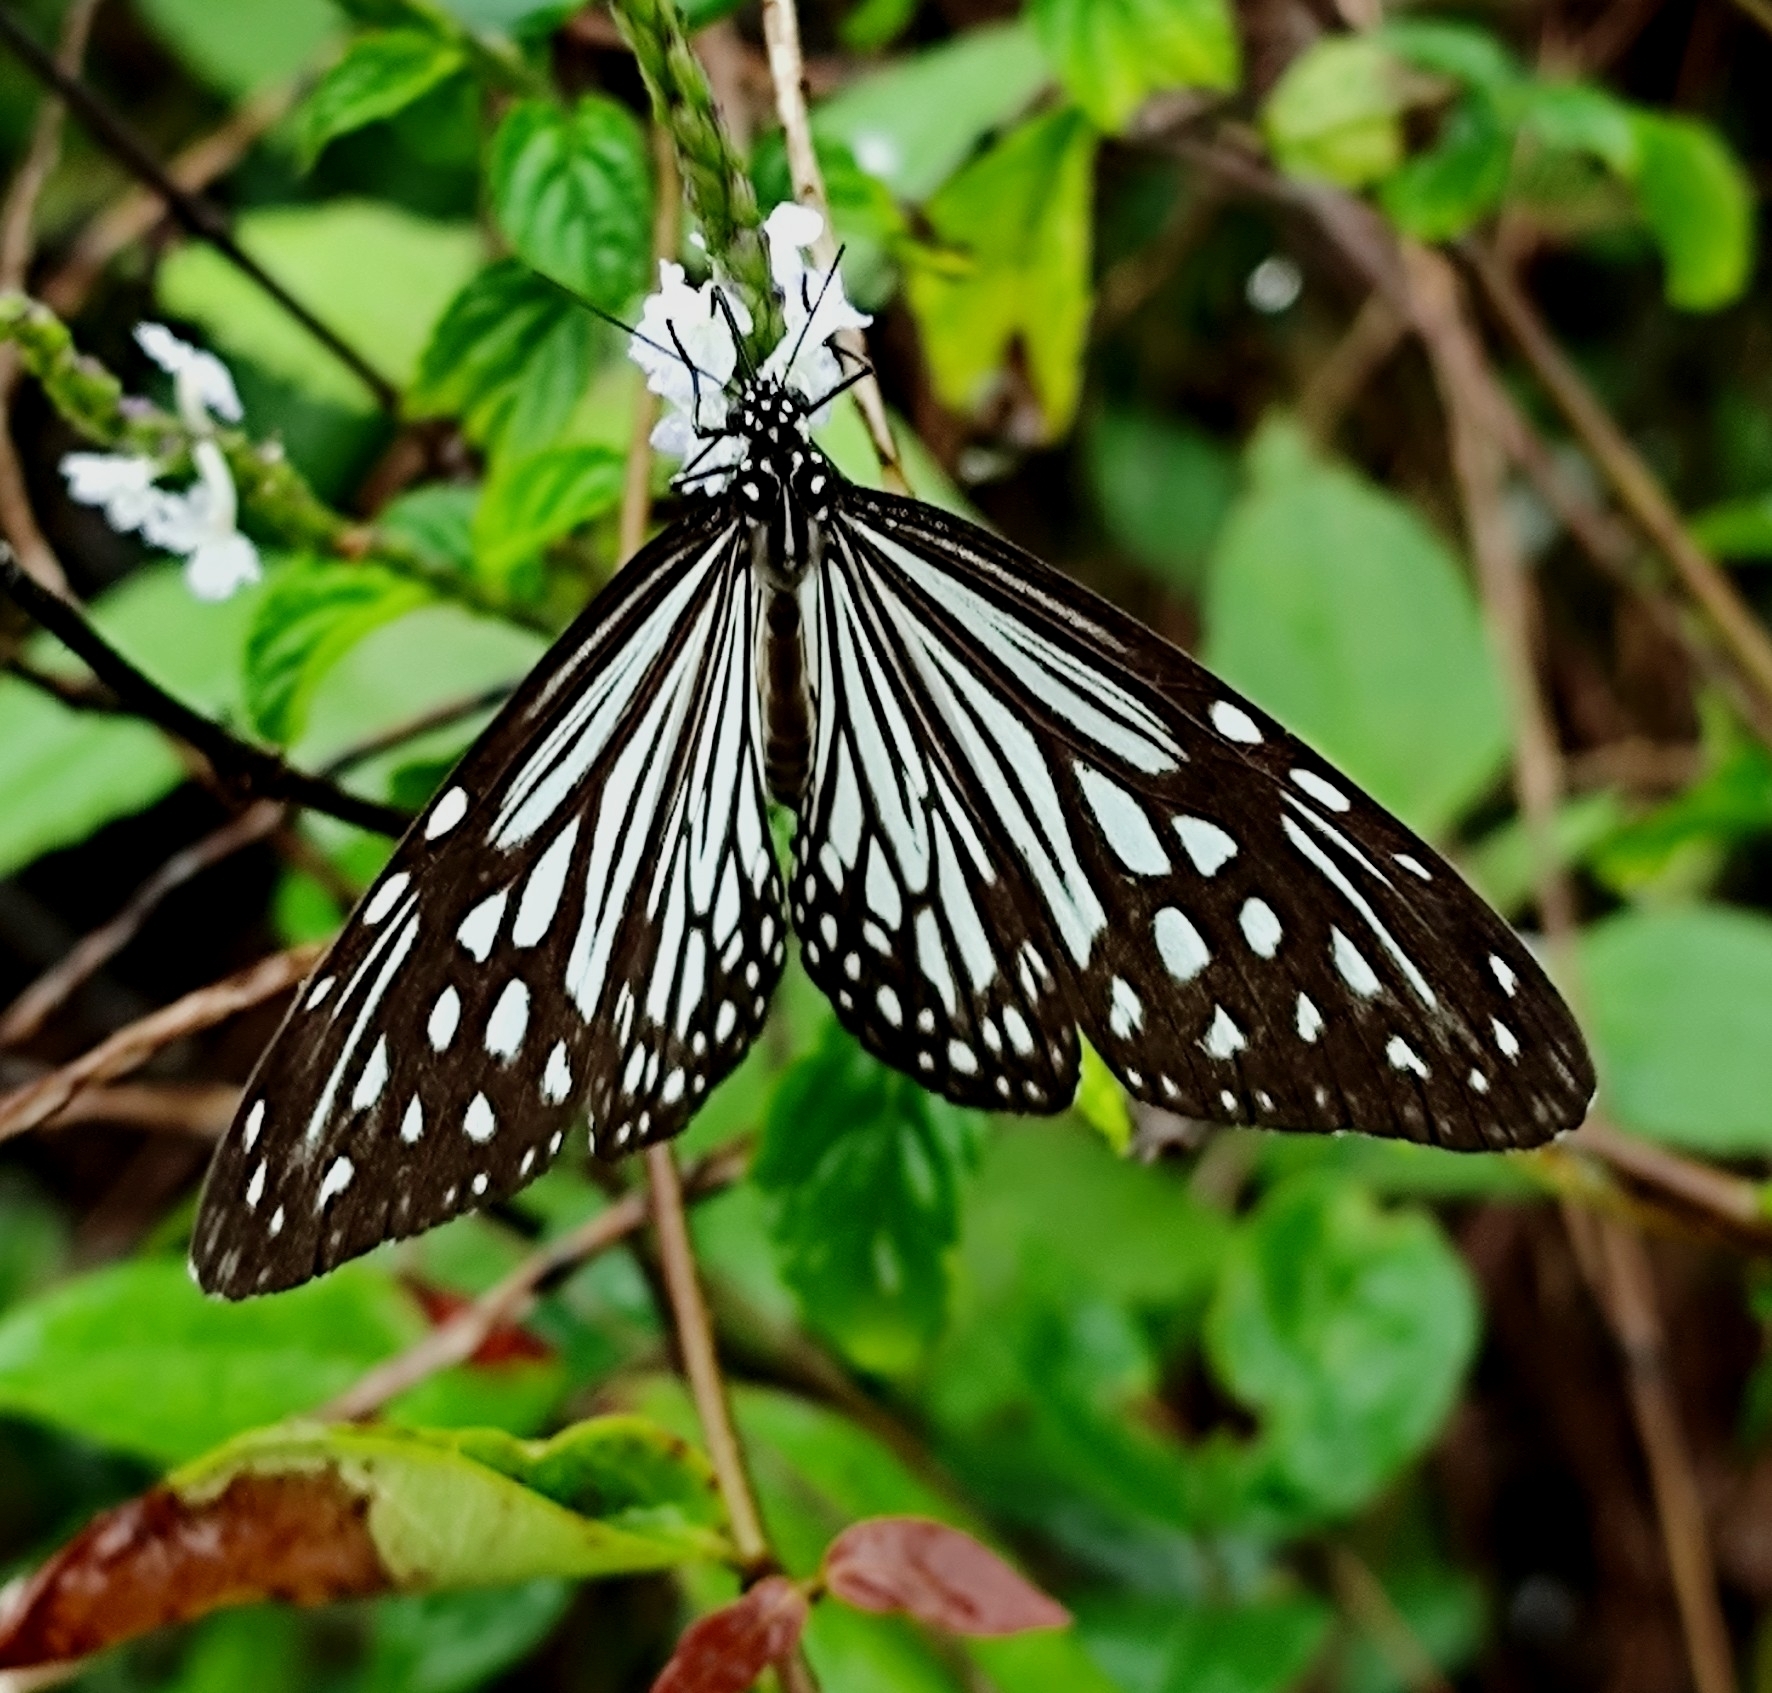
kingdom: Animalia
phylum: Arthropoda
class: Insecta
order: Lepidoptera
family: Nymphalidae
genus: Parantica
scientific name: Parantica aglea
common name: Glassy tiger
